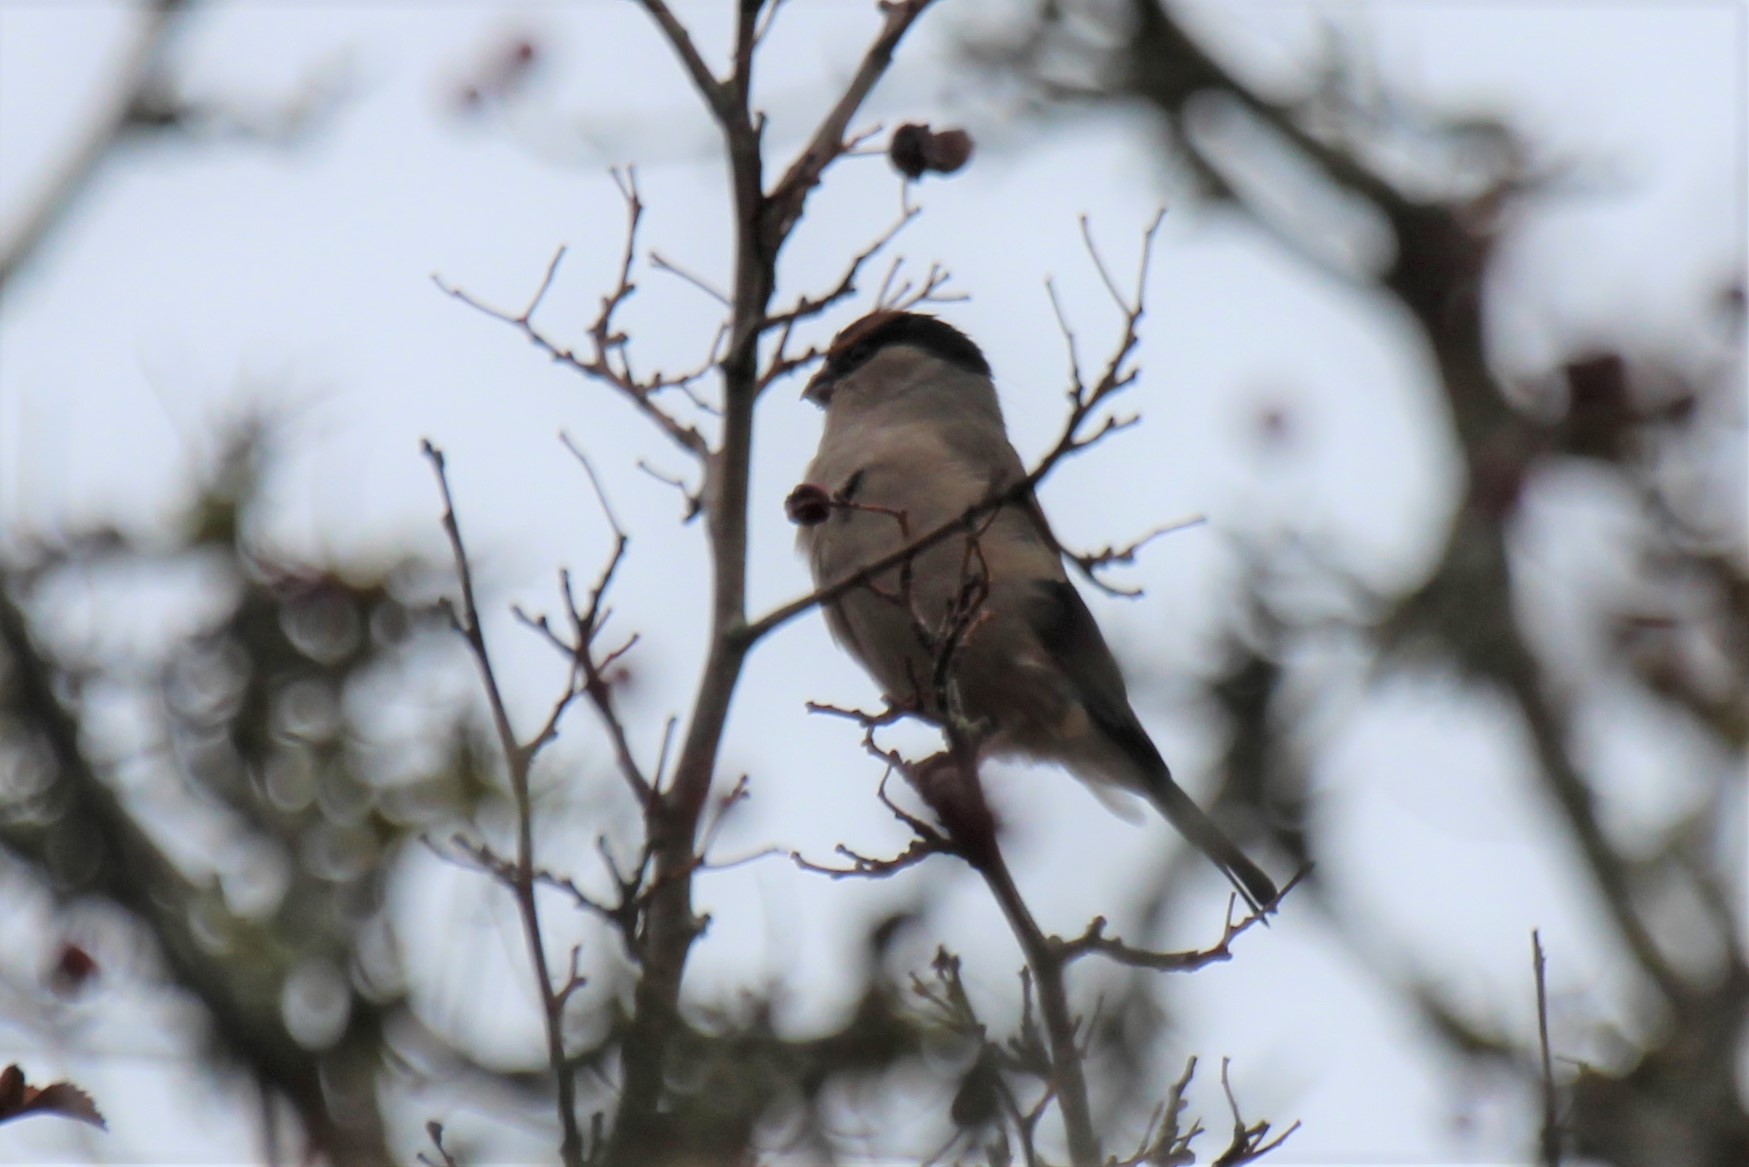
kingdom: Animalia
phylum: Chordata
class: Aves
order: Passeriformes
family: Fringillidae
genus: Pyrrhula
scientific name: Pyrrhula pyrrhula
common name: Eurasian bullfinch
